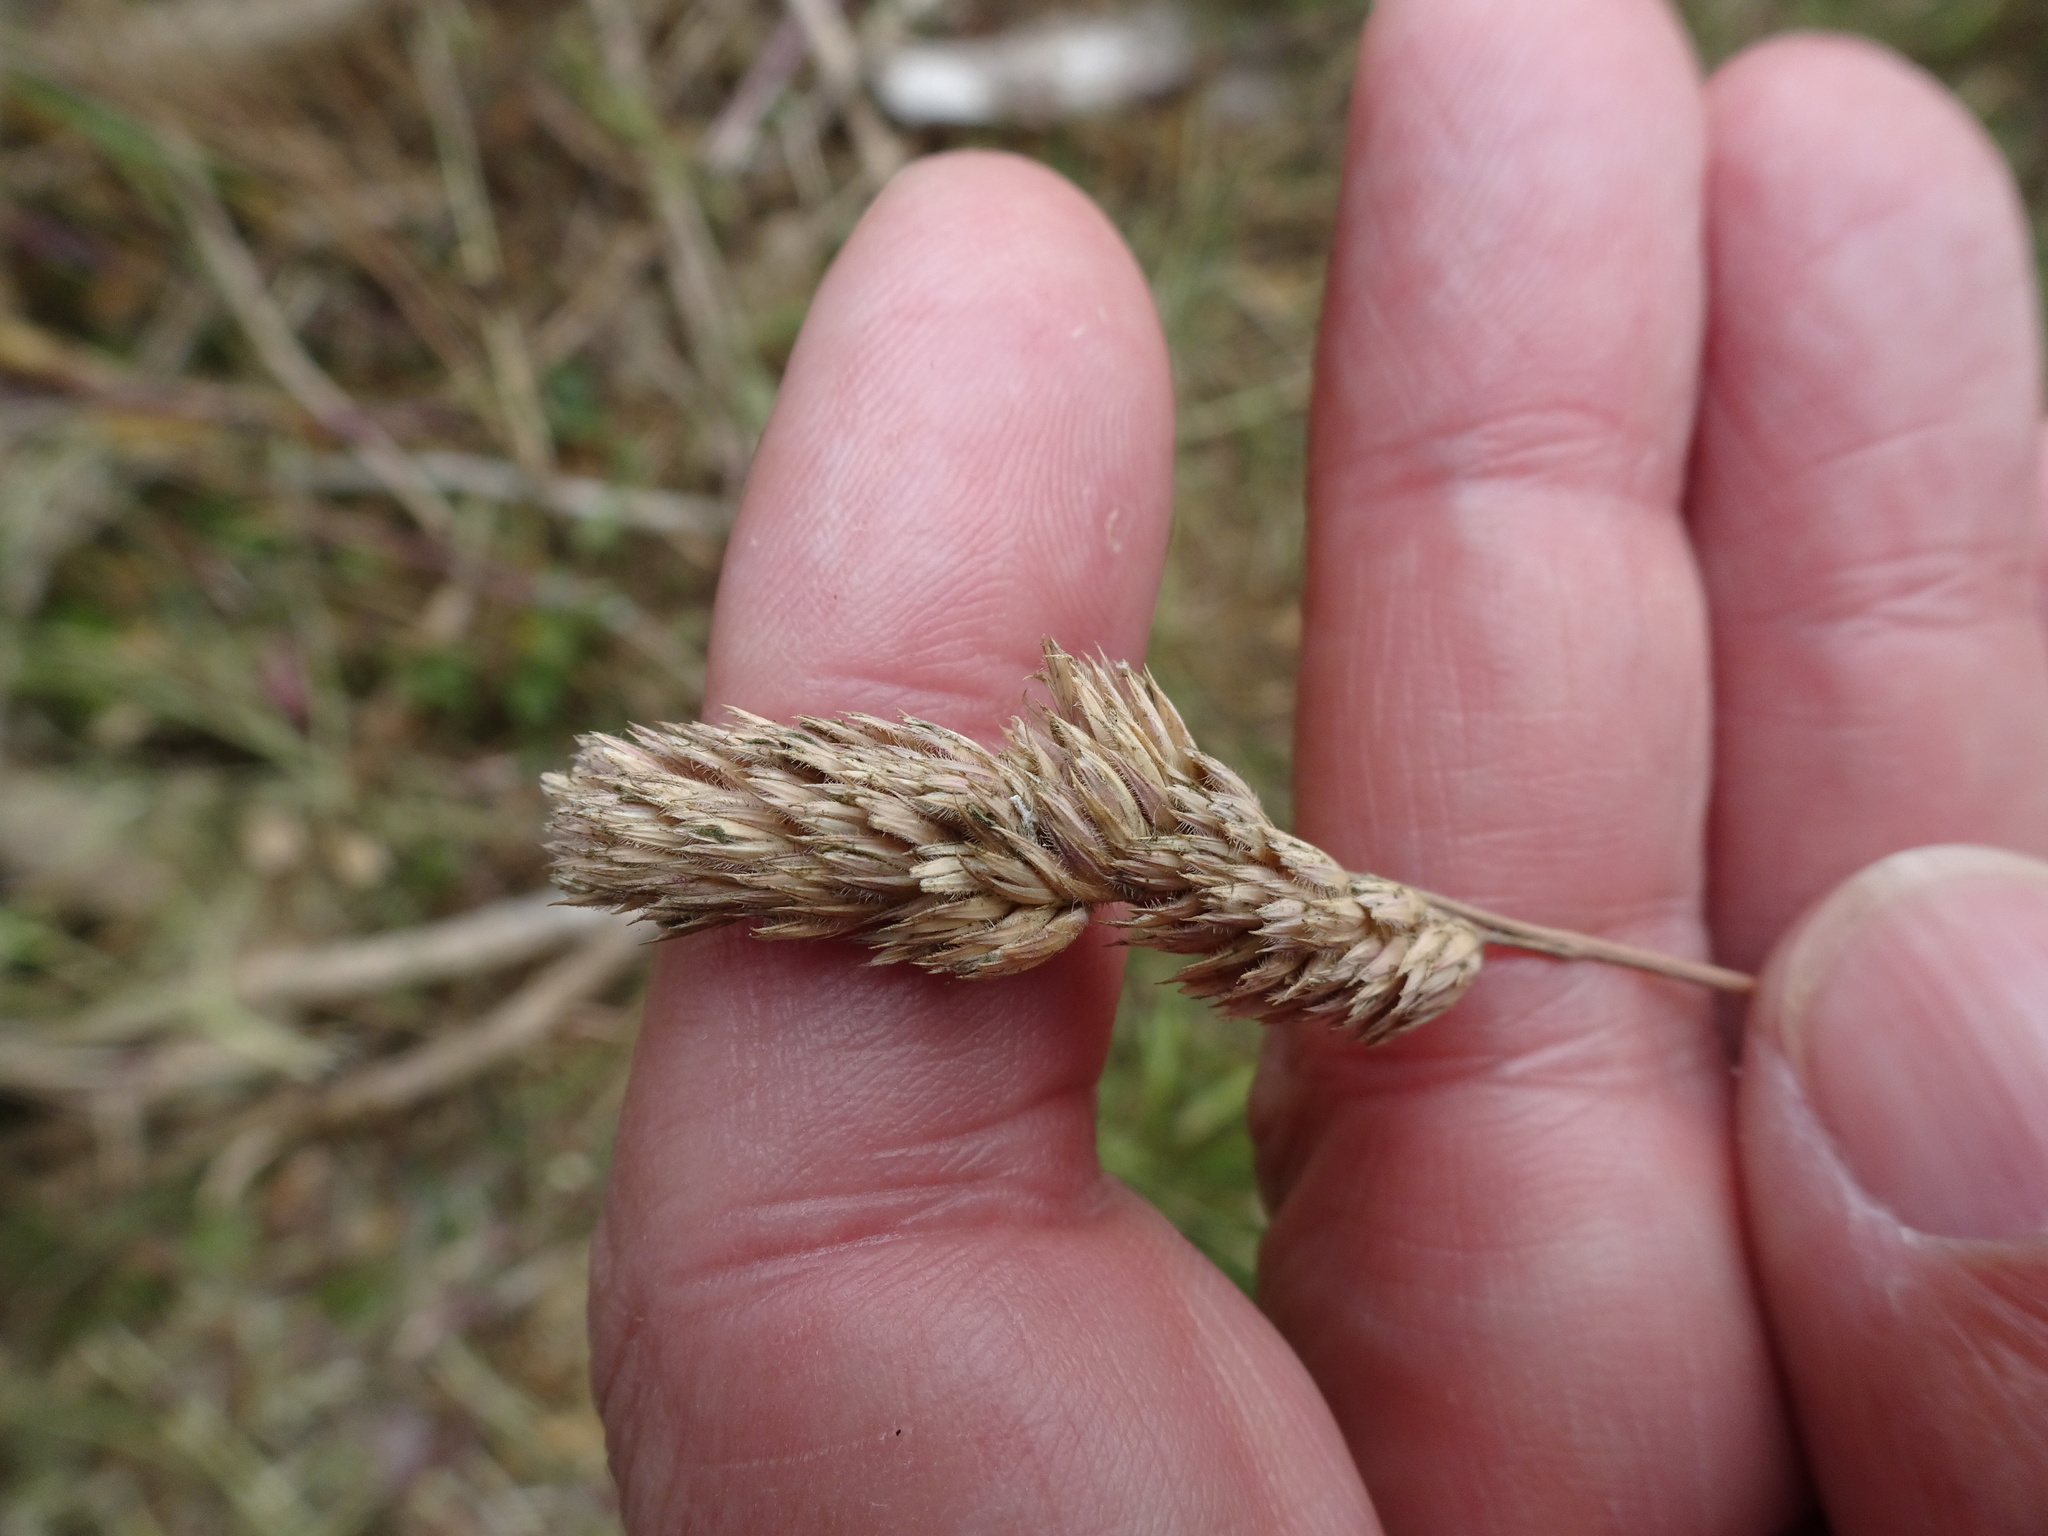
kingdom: Plantae
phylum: Tracheophyta
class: Liliopsida
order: Poales
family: Poaceae
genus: Dactylis
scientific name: Dactylis glomerata
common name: Orchardgrass
